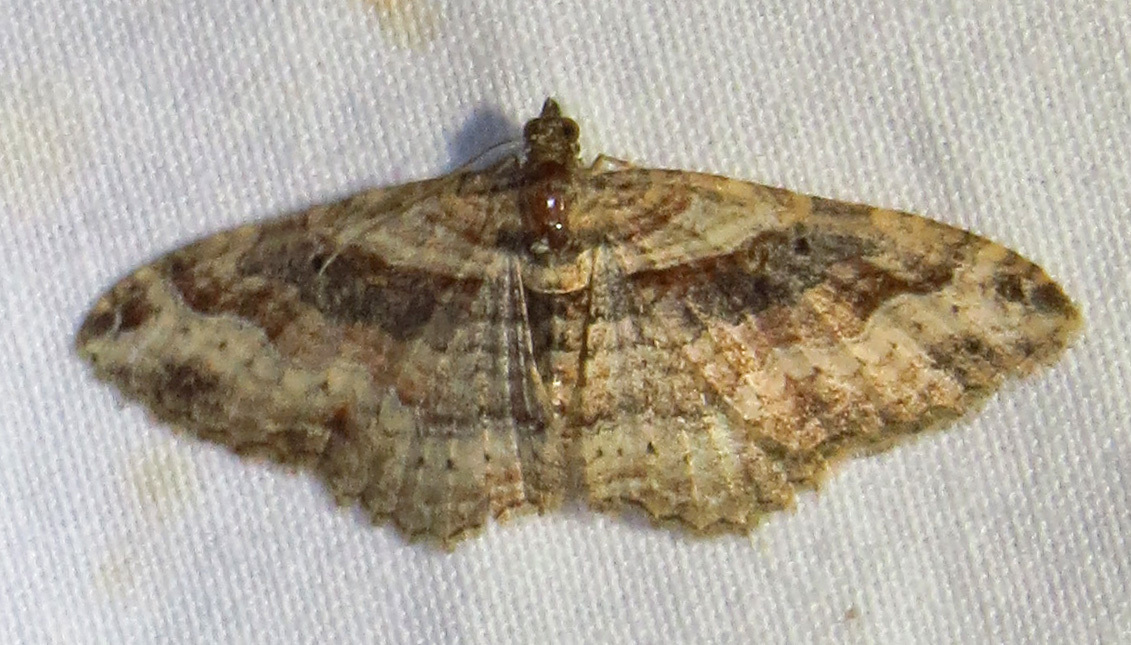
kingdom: Animalia
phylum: Arthropoda
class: Insecta
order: Lepidoptera
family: Geometridae
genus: Costaconvexa
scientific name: Costaconvexa centrostrigaria
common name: Bent-line carpet
